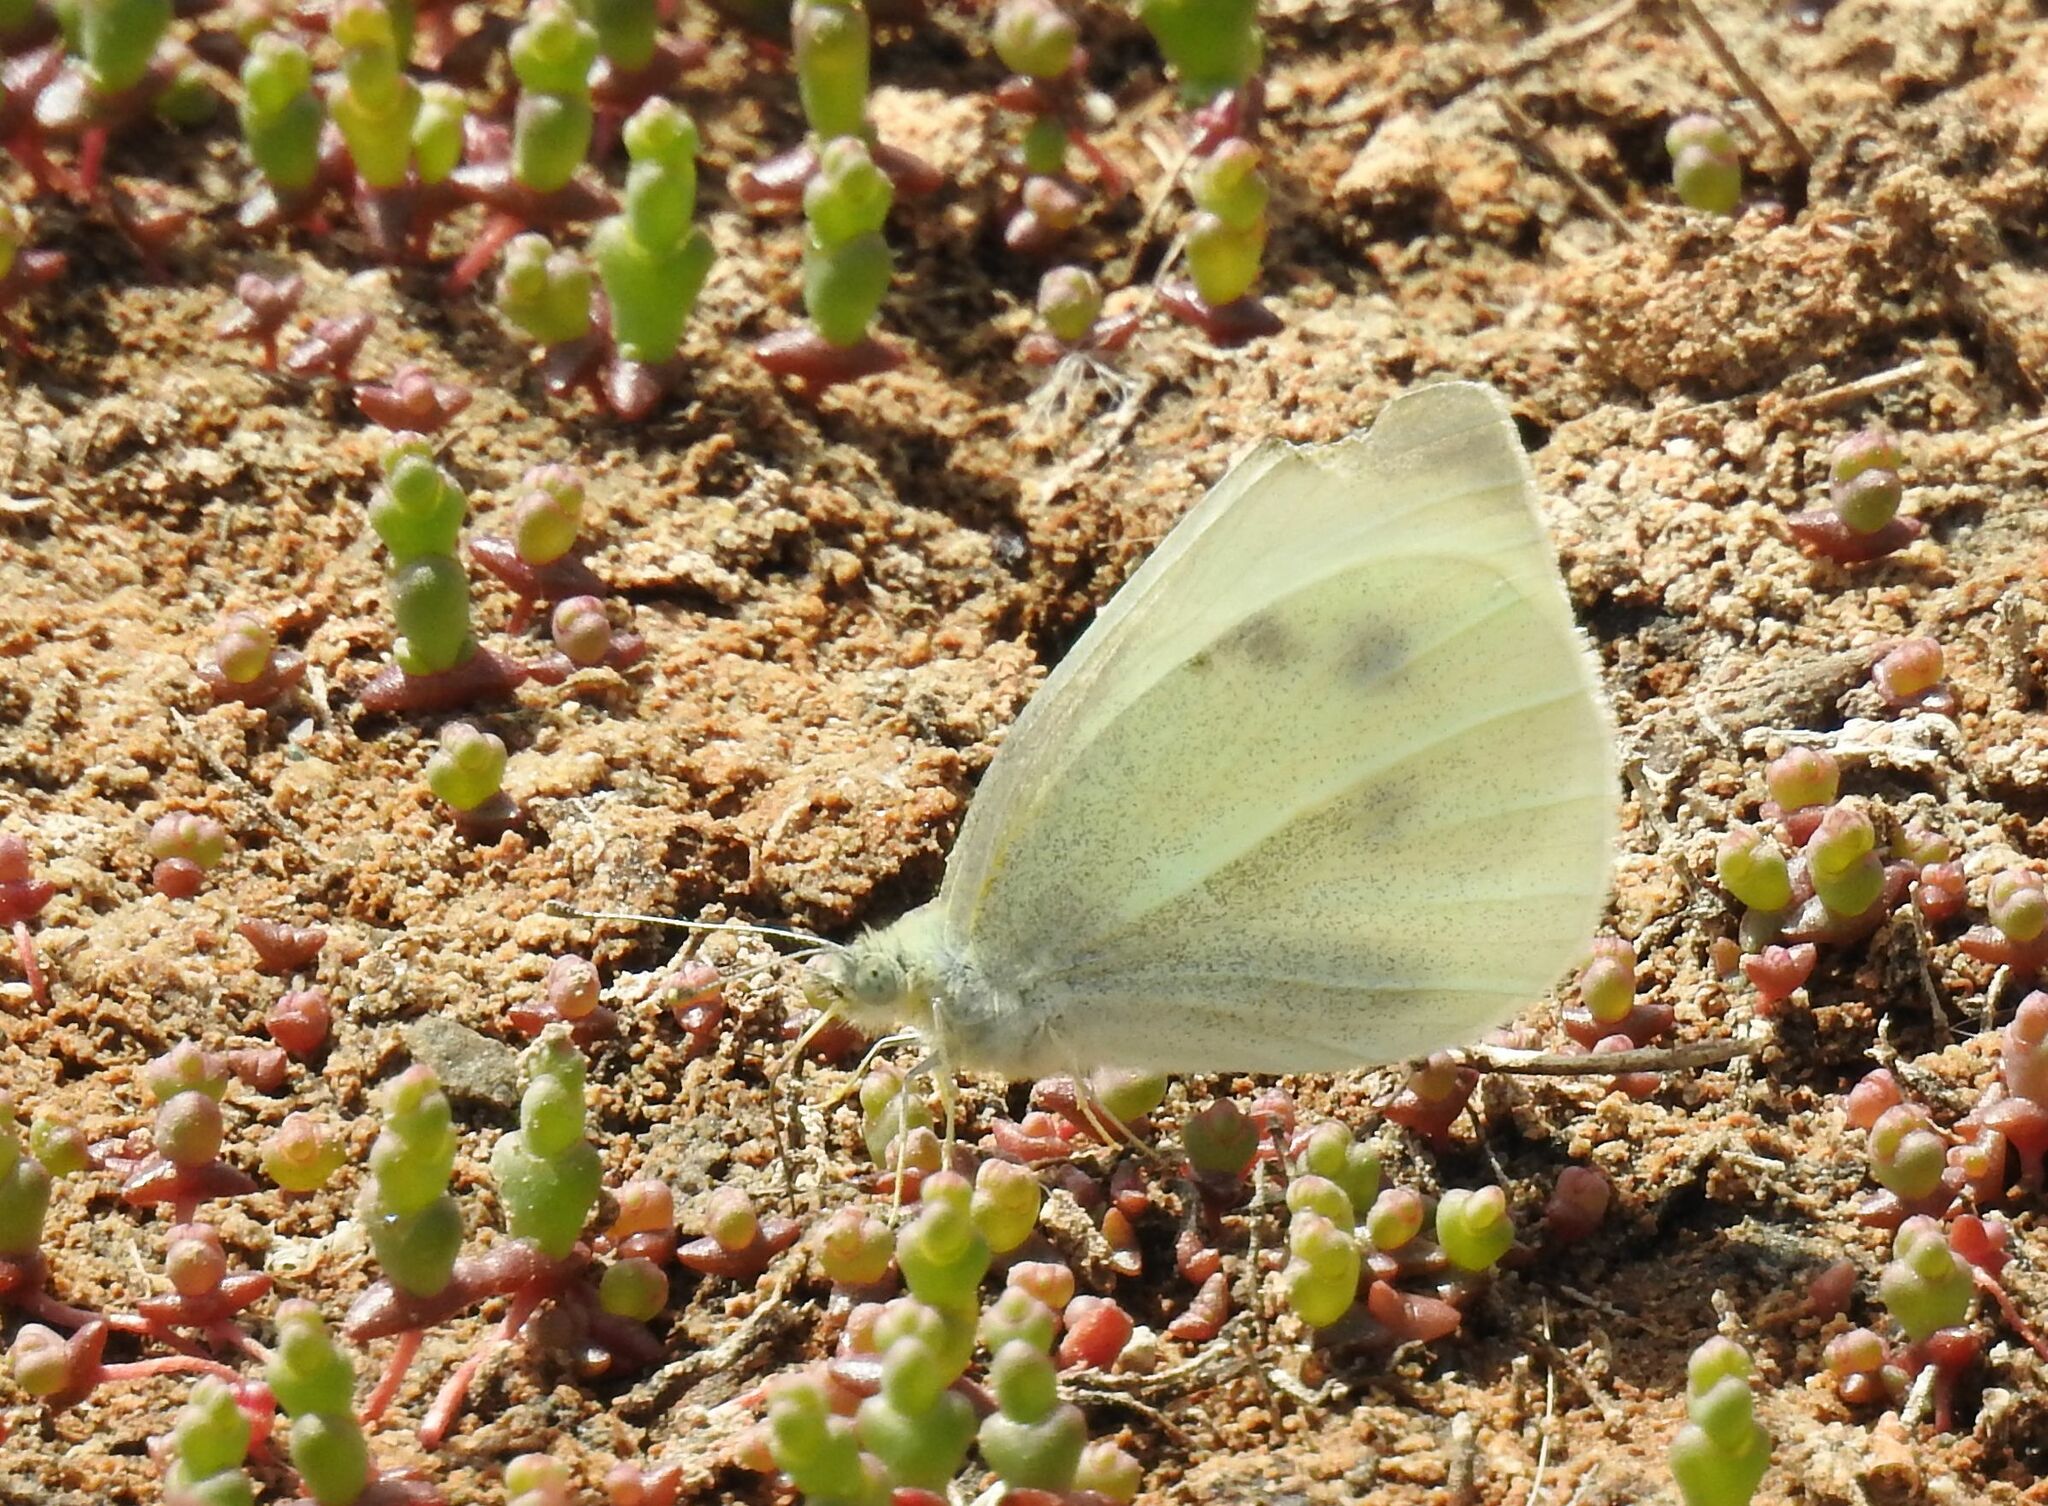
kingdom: Animalia
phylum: Arthropoda
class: Insecta
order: Lepidoptera
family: Pieridae
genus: Pieris
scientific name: Pieris rapae
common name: Small white
